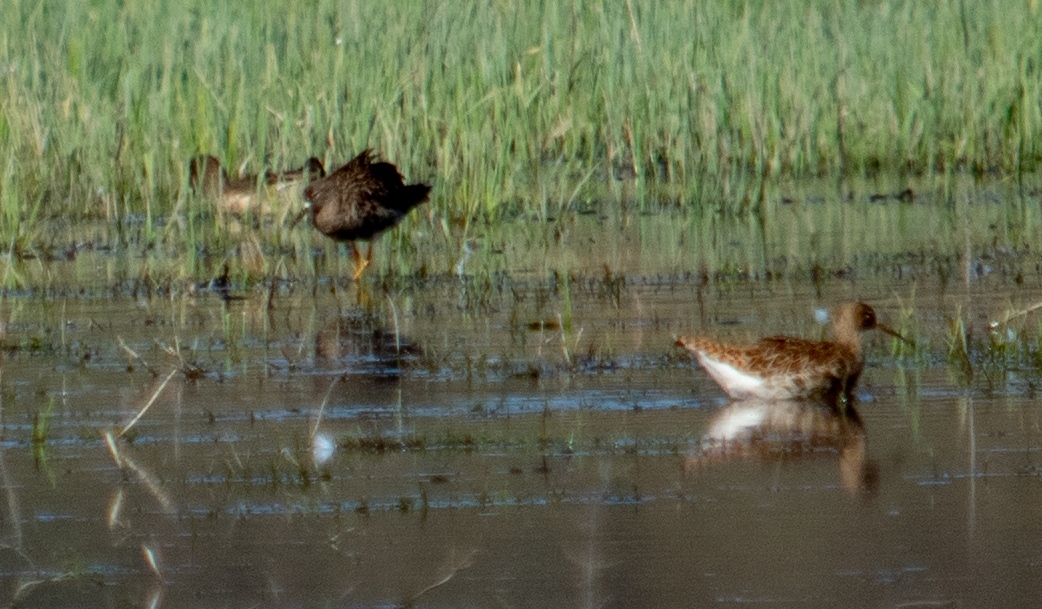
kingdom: Animalia
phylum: Chordata
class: Aves
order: Charadriiformes
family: Scolopacidae
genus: Calidris
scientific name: Calidris pugnax
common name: Ruff
